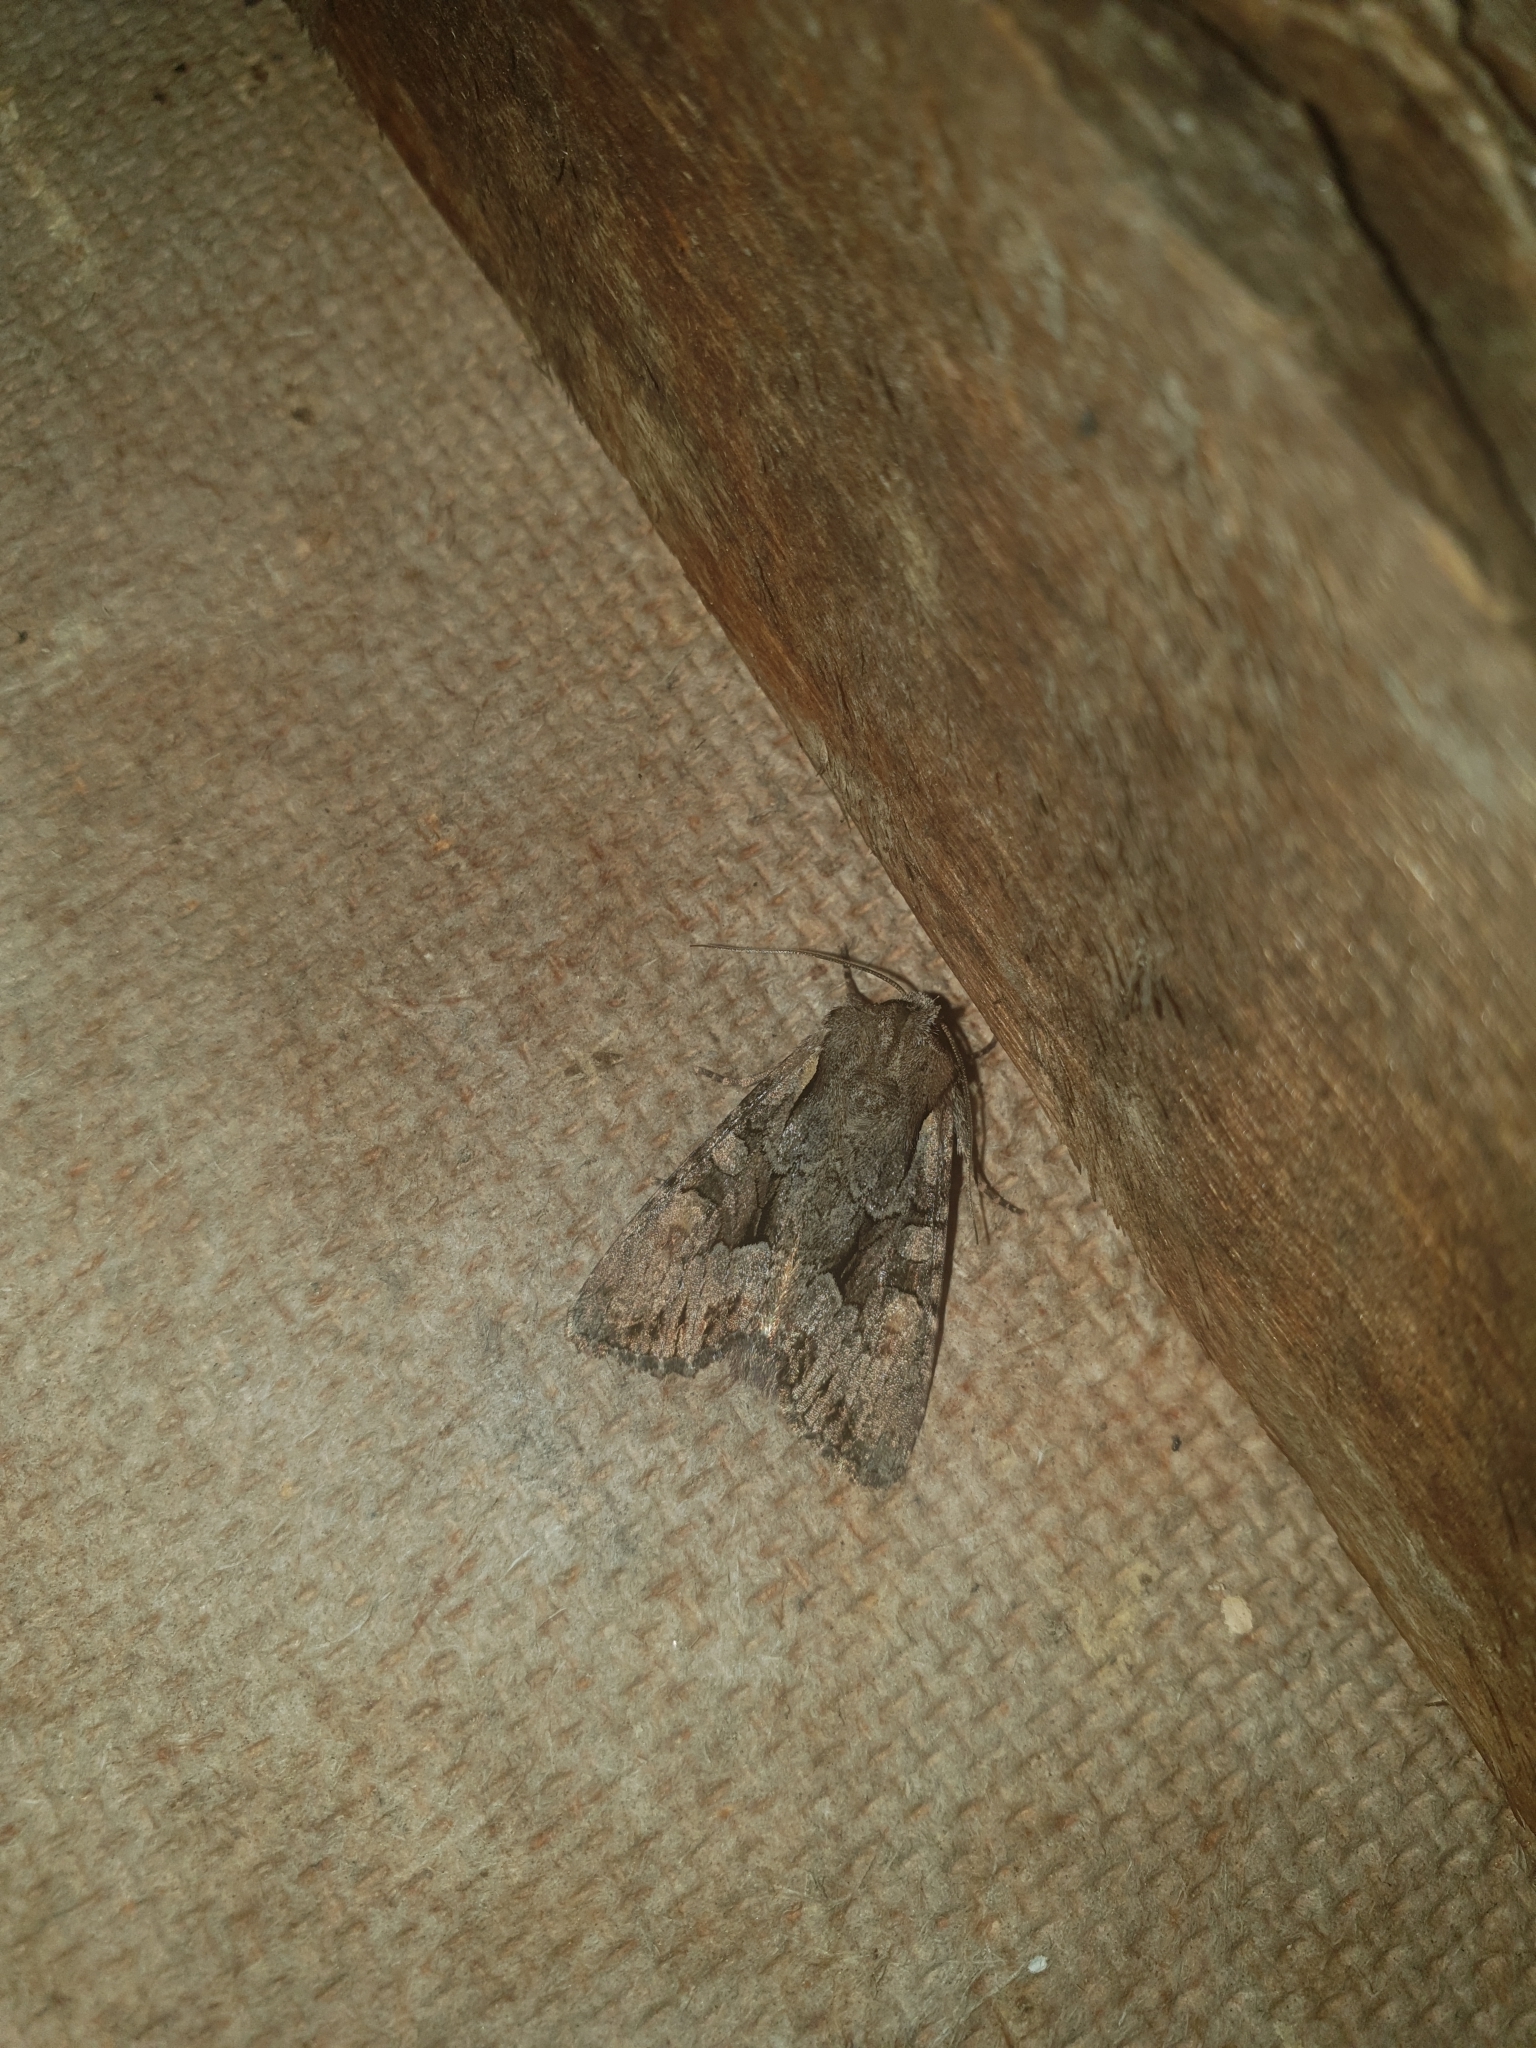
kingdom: Animalia
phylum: Arthropoda
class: Insecta
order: Lepidoptera
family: Noctuidae
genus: Lacanobia
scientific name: Lacanobia w-latinum
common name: Light brocade
